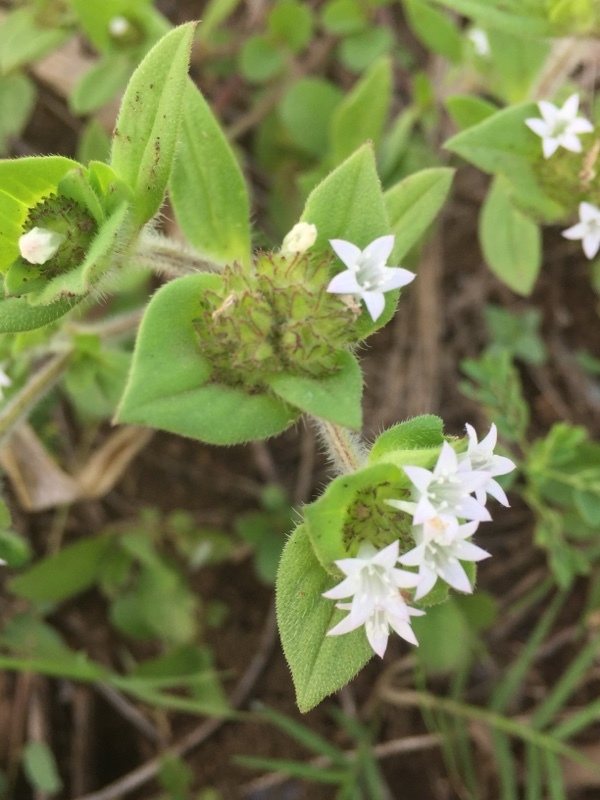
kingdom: Plantae
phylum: Tracheophyta
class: Magnoliopsida
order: Gentianales
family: Rubiaceae
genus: Richardia
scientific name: Richardia scabra
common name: Rough mexican clover
